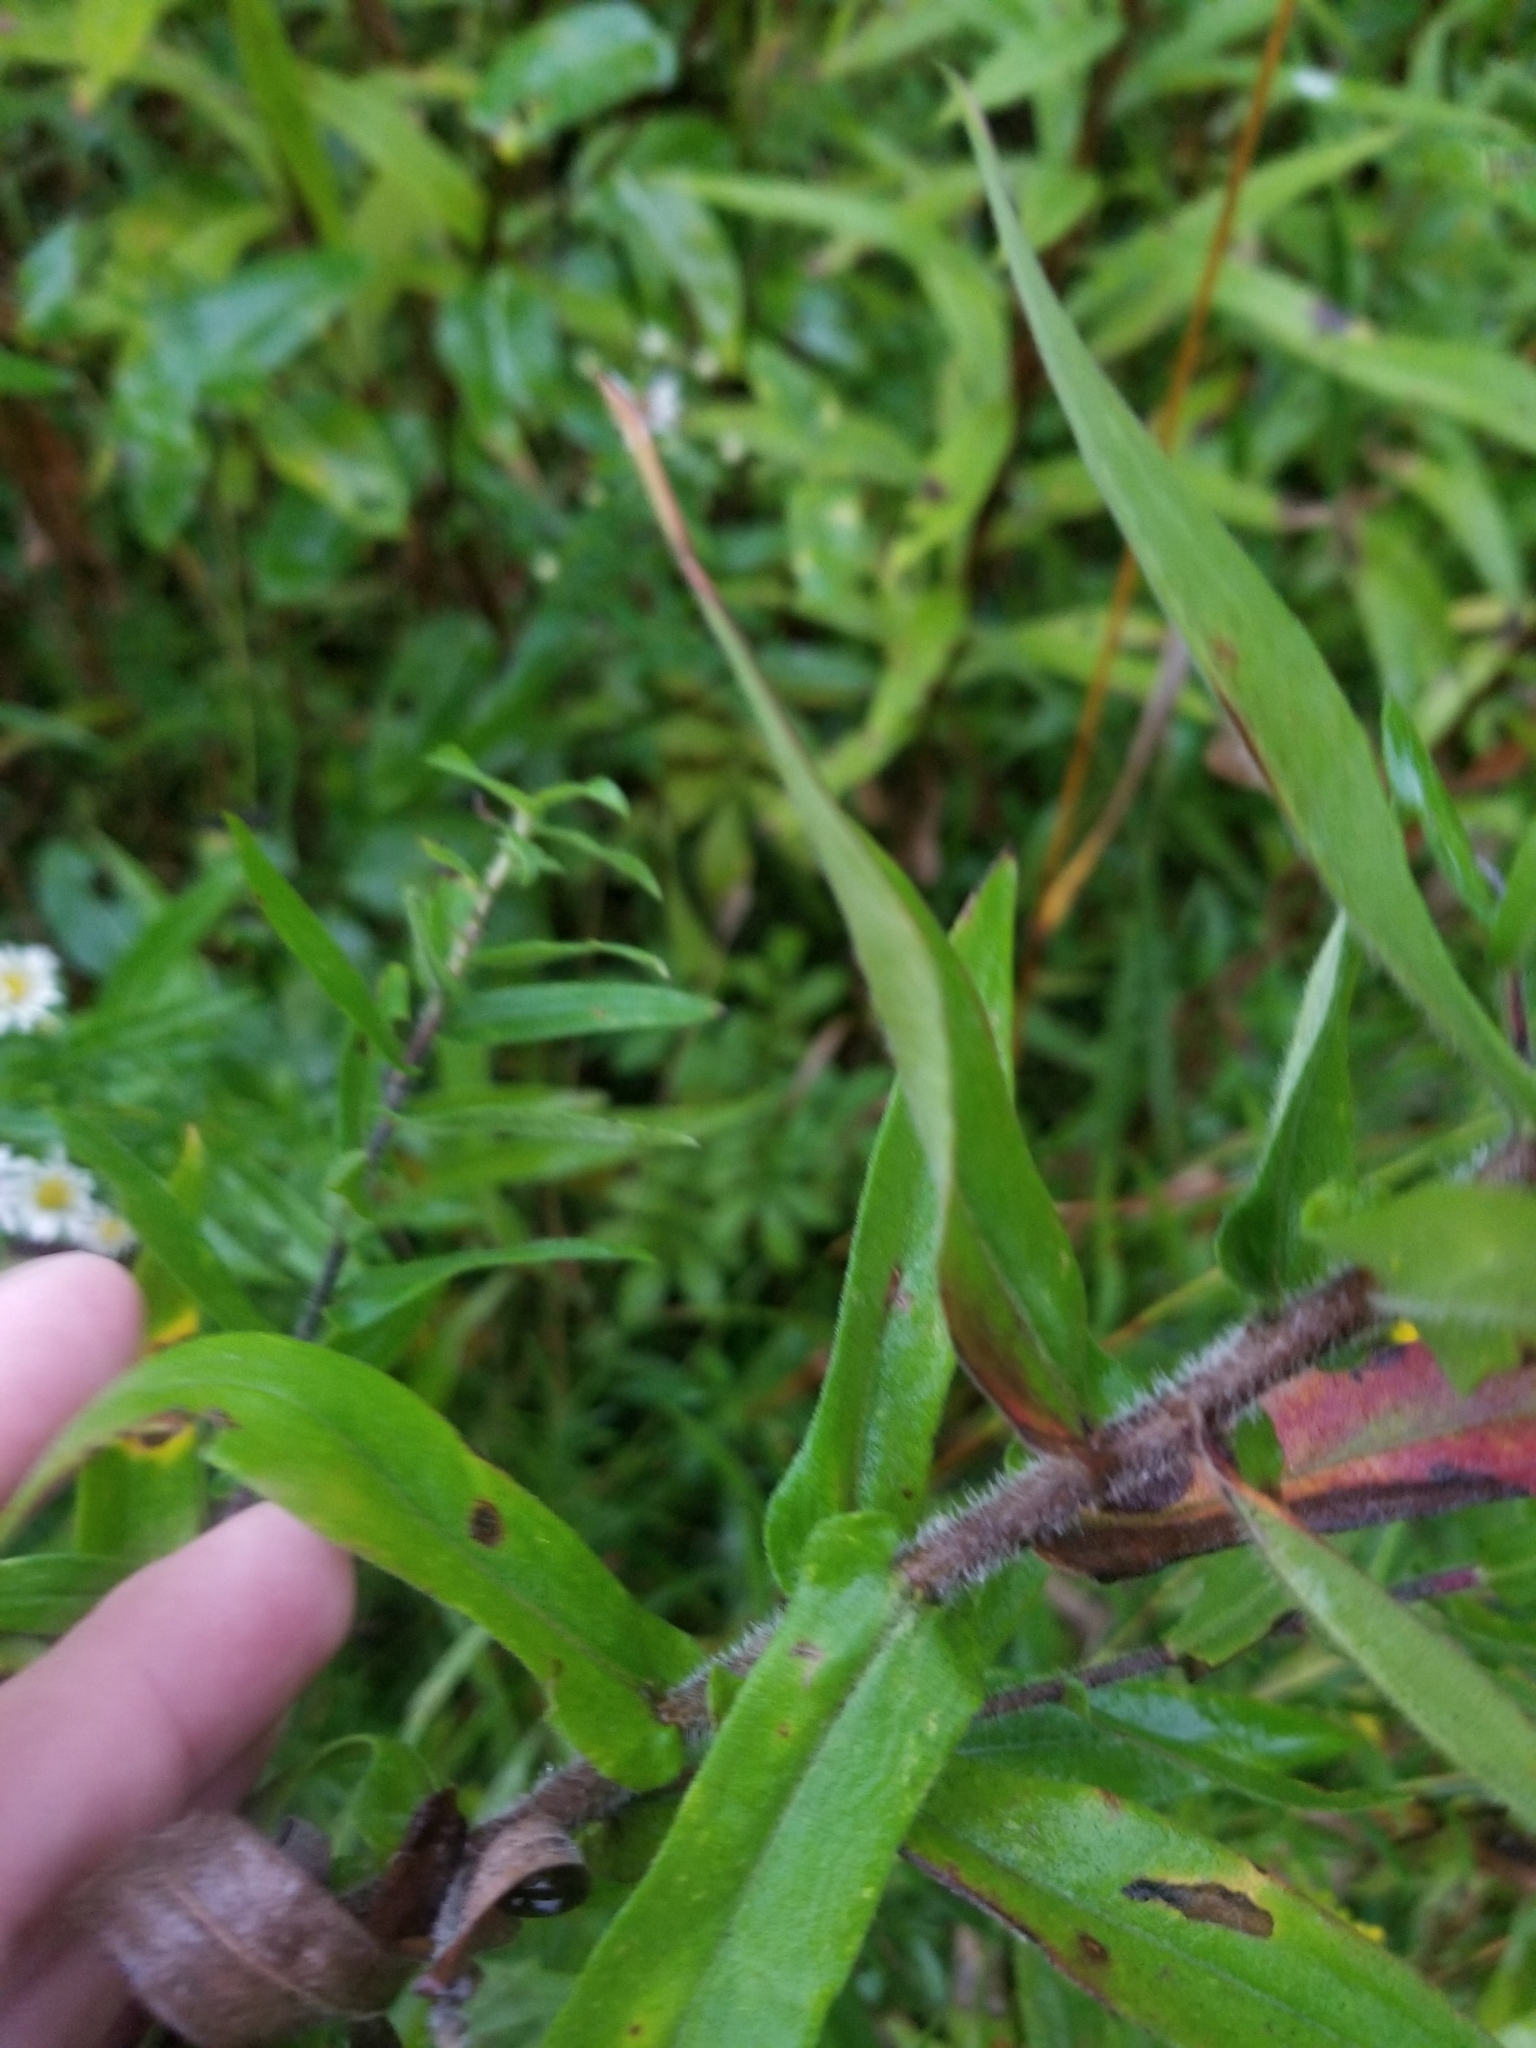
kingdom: Plantae
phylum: Tracheophyta
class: Magnoliopsida
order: Asterales
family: Asteraceae
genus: Symphyotrichum
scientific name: Symphyotrichum novae-angliae
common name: Michaelmas daisy
